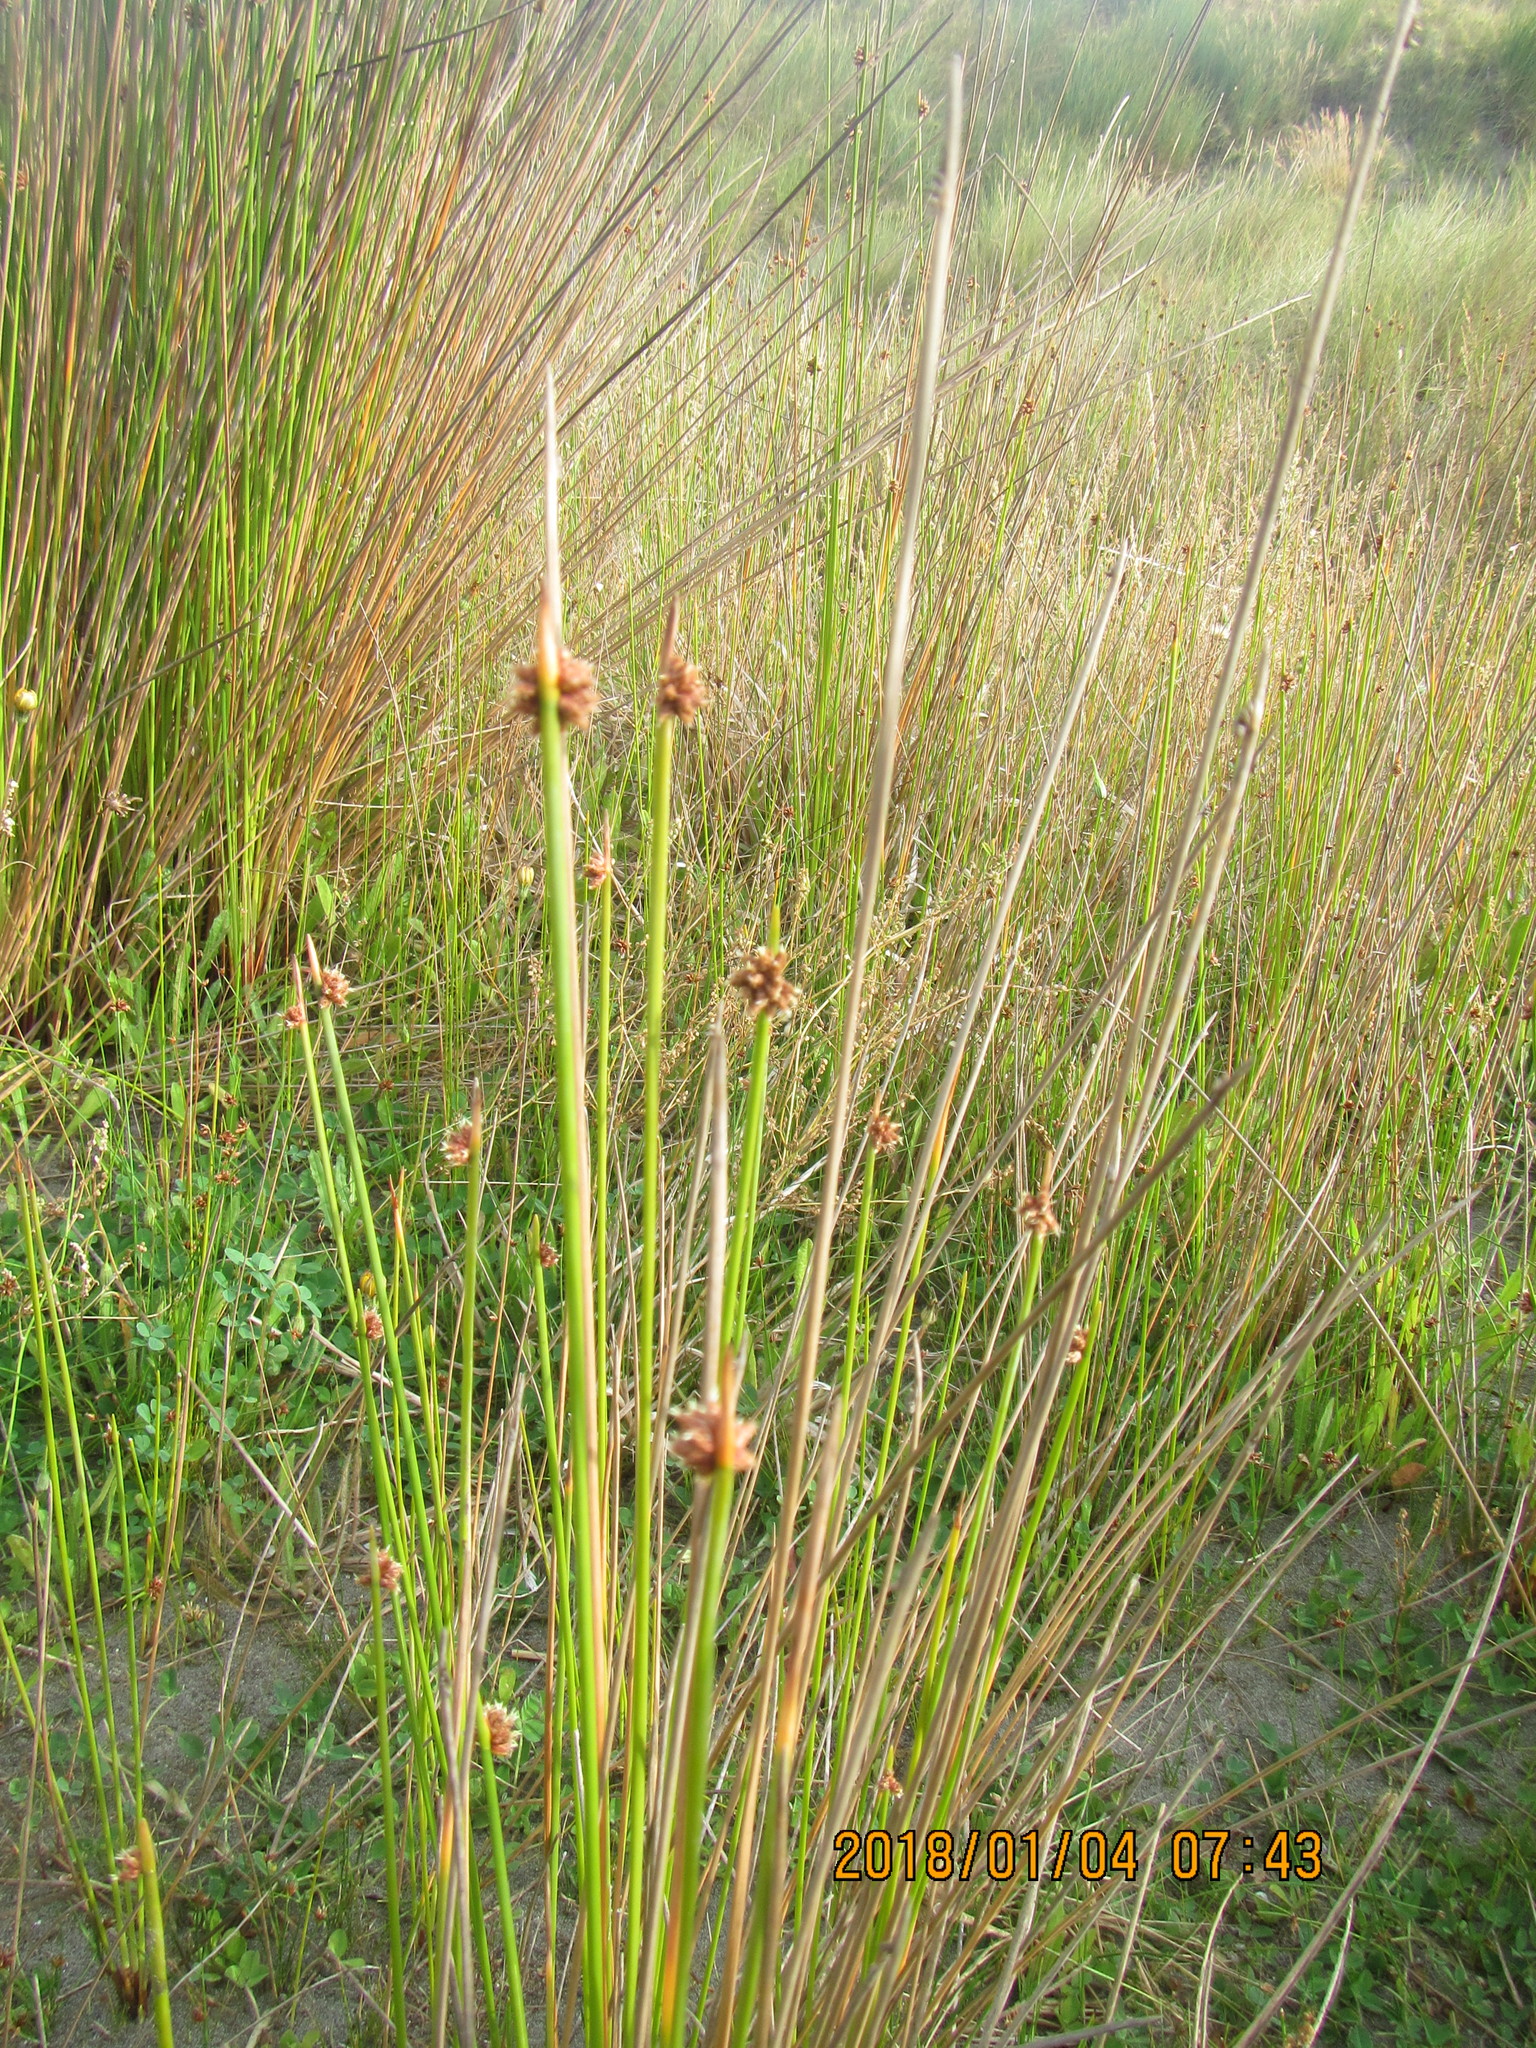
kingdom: Plantae
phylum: Tracheophyta
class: Liliopsida
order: Poales
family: Cyperaceae
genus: Ficinia
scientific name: Ficinia nodosa
